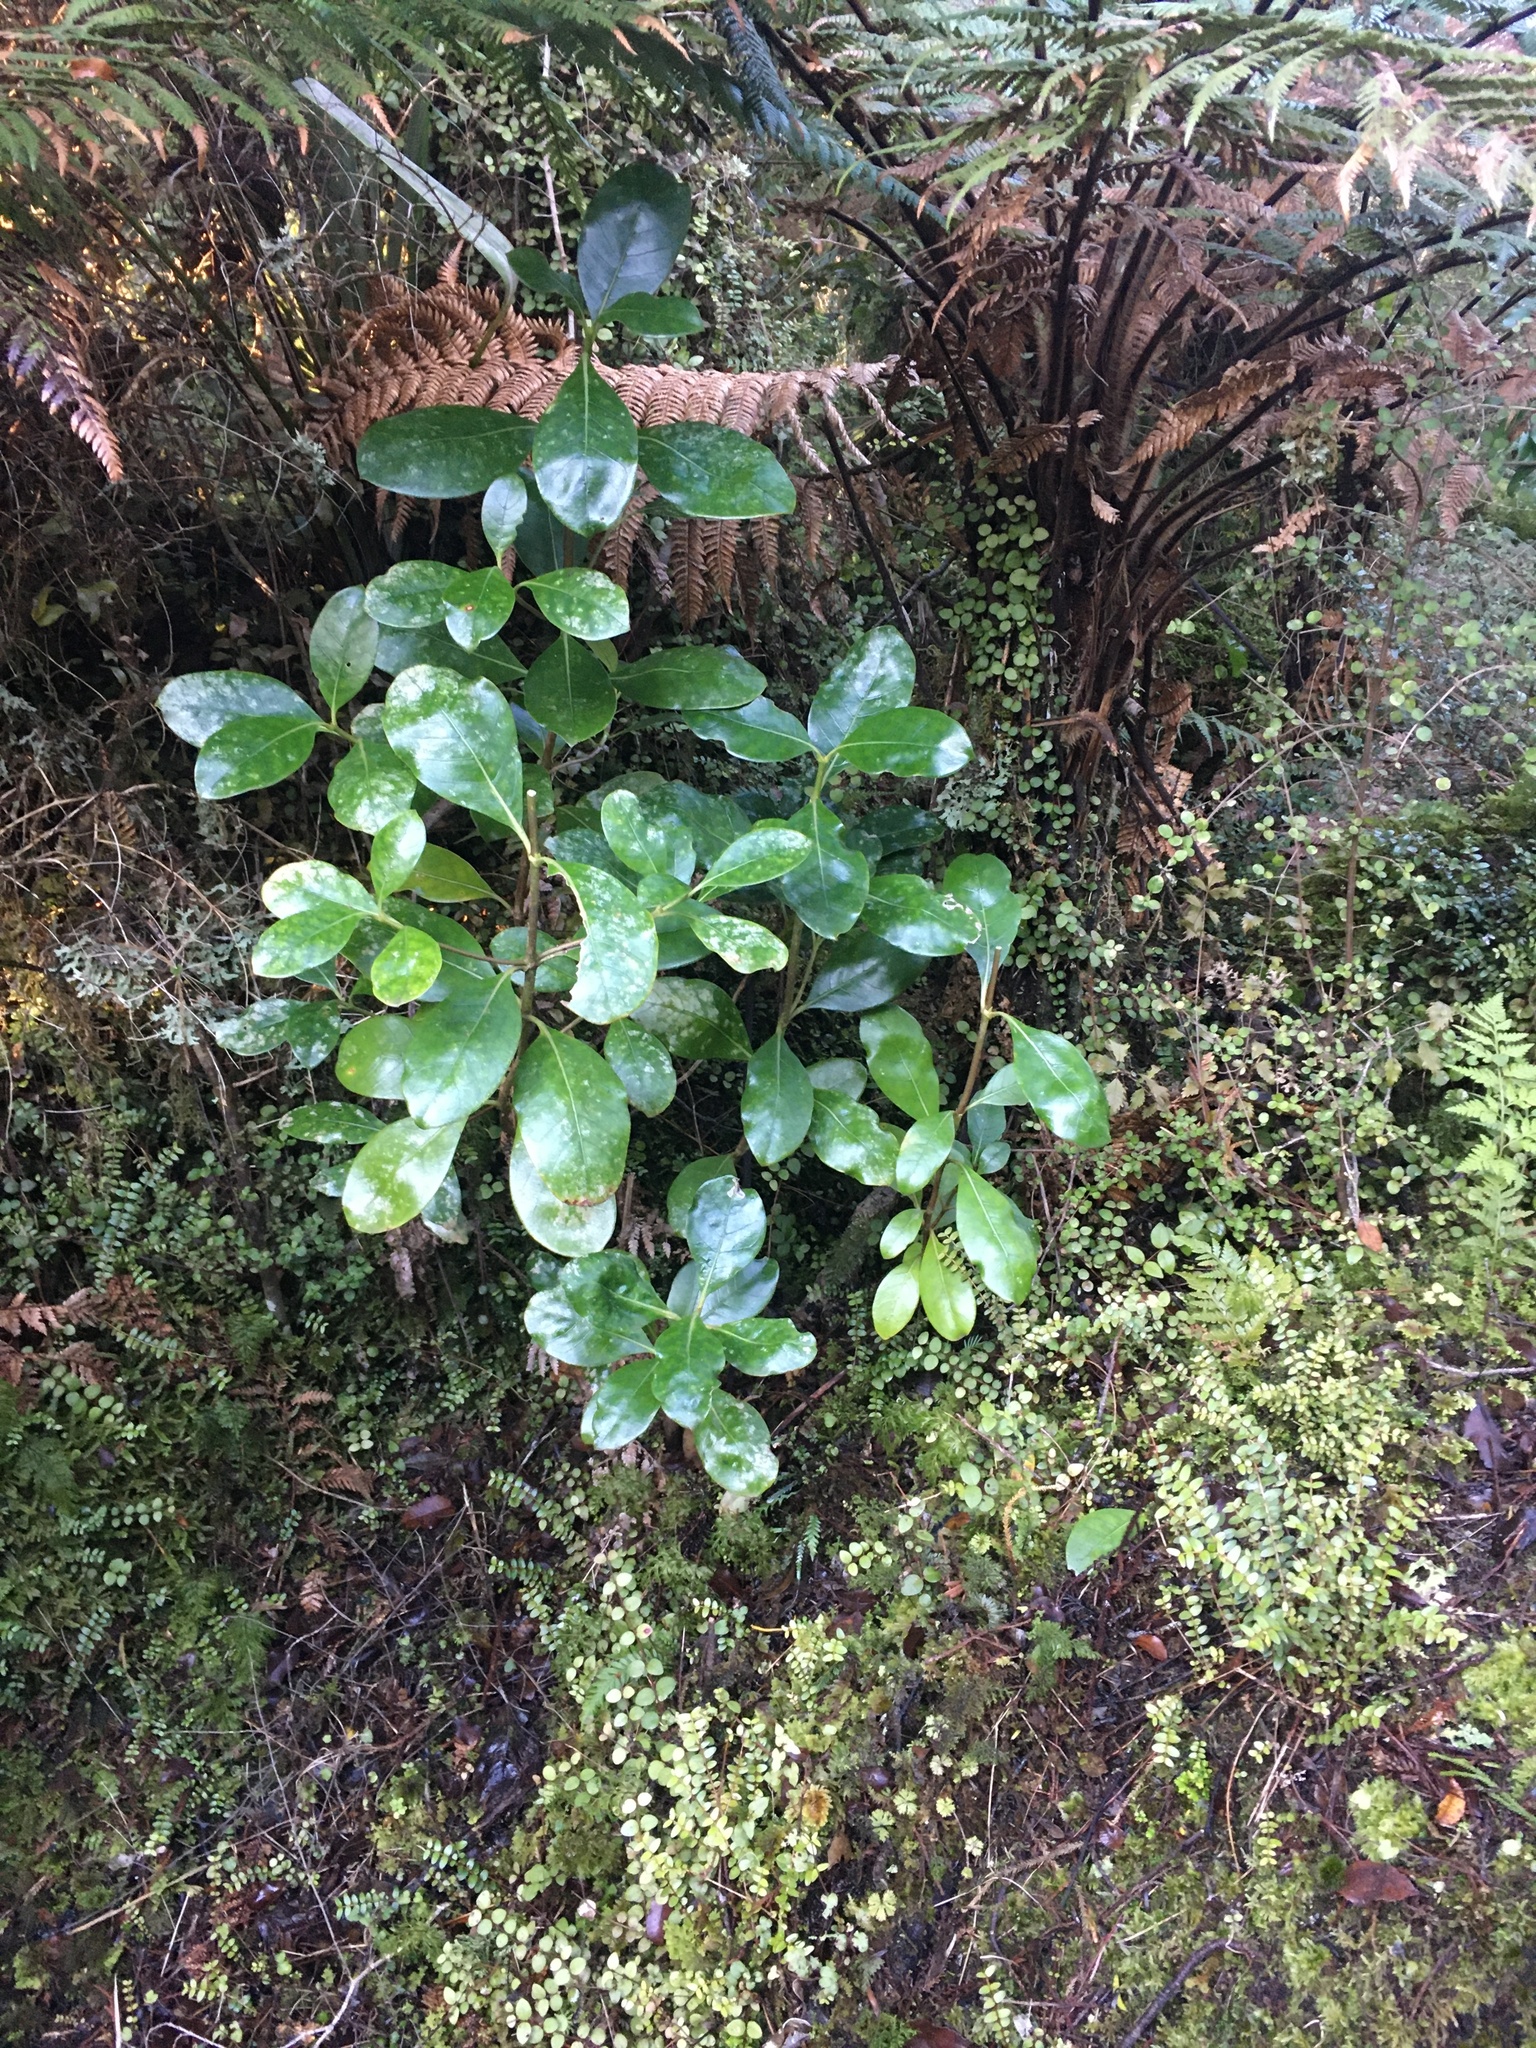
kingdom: Plantae
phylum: Tracheophyta
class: Magnoliopsida
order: Gentianales
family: Rubiaceae
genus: Coprosma
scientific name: Coprosma lucida
